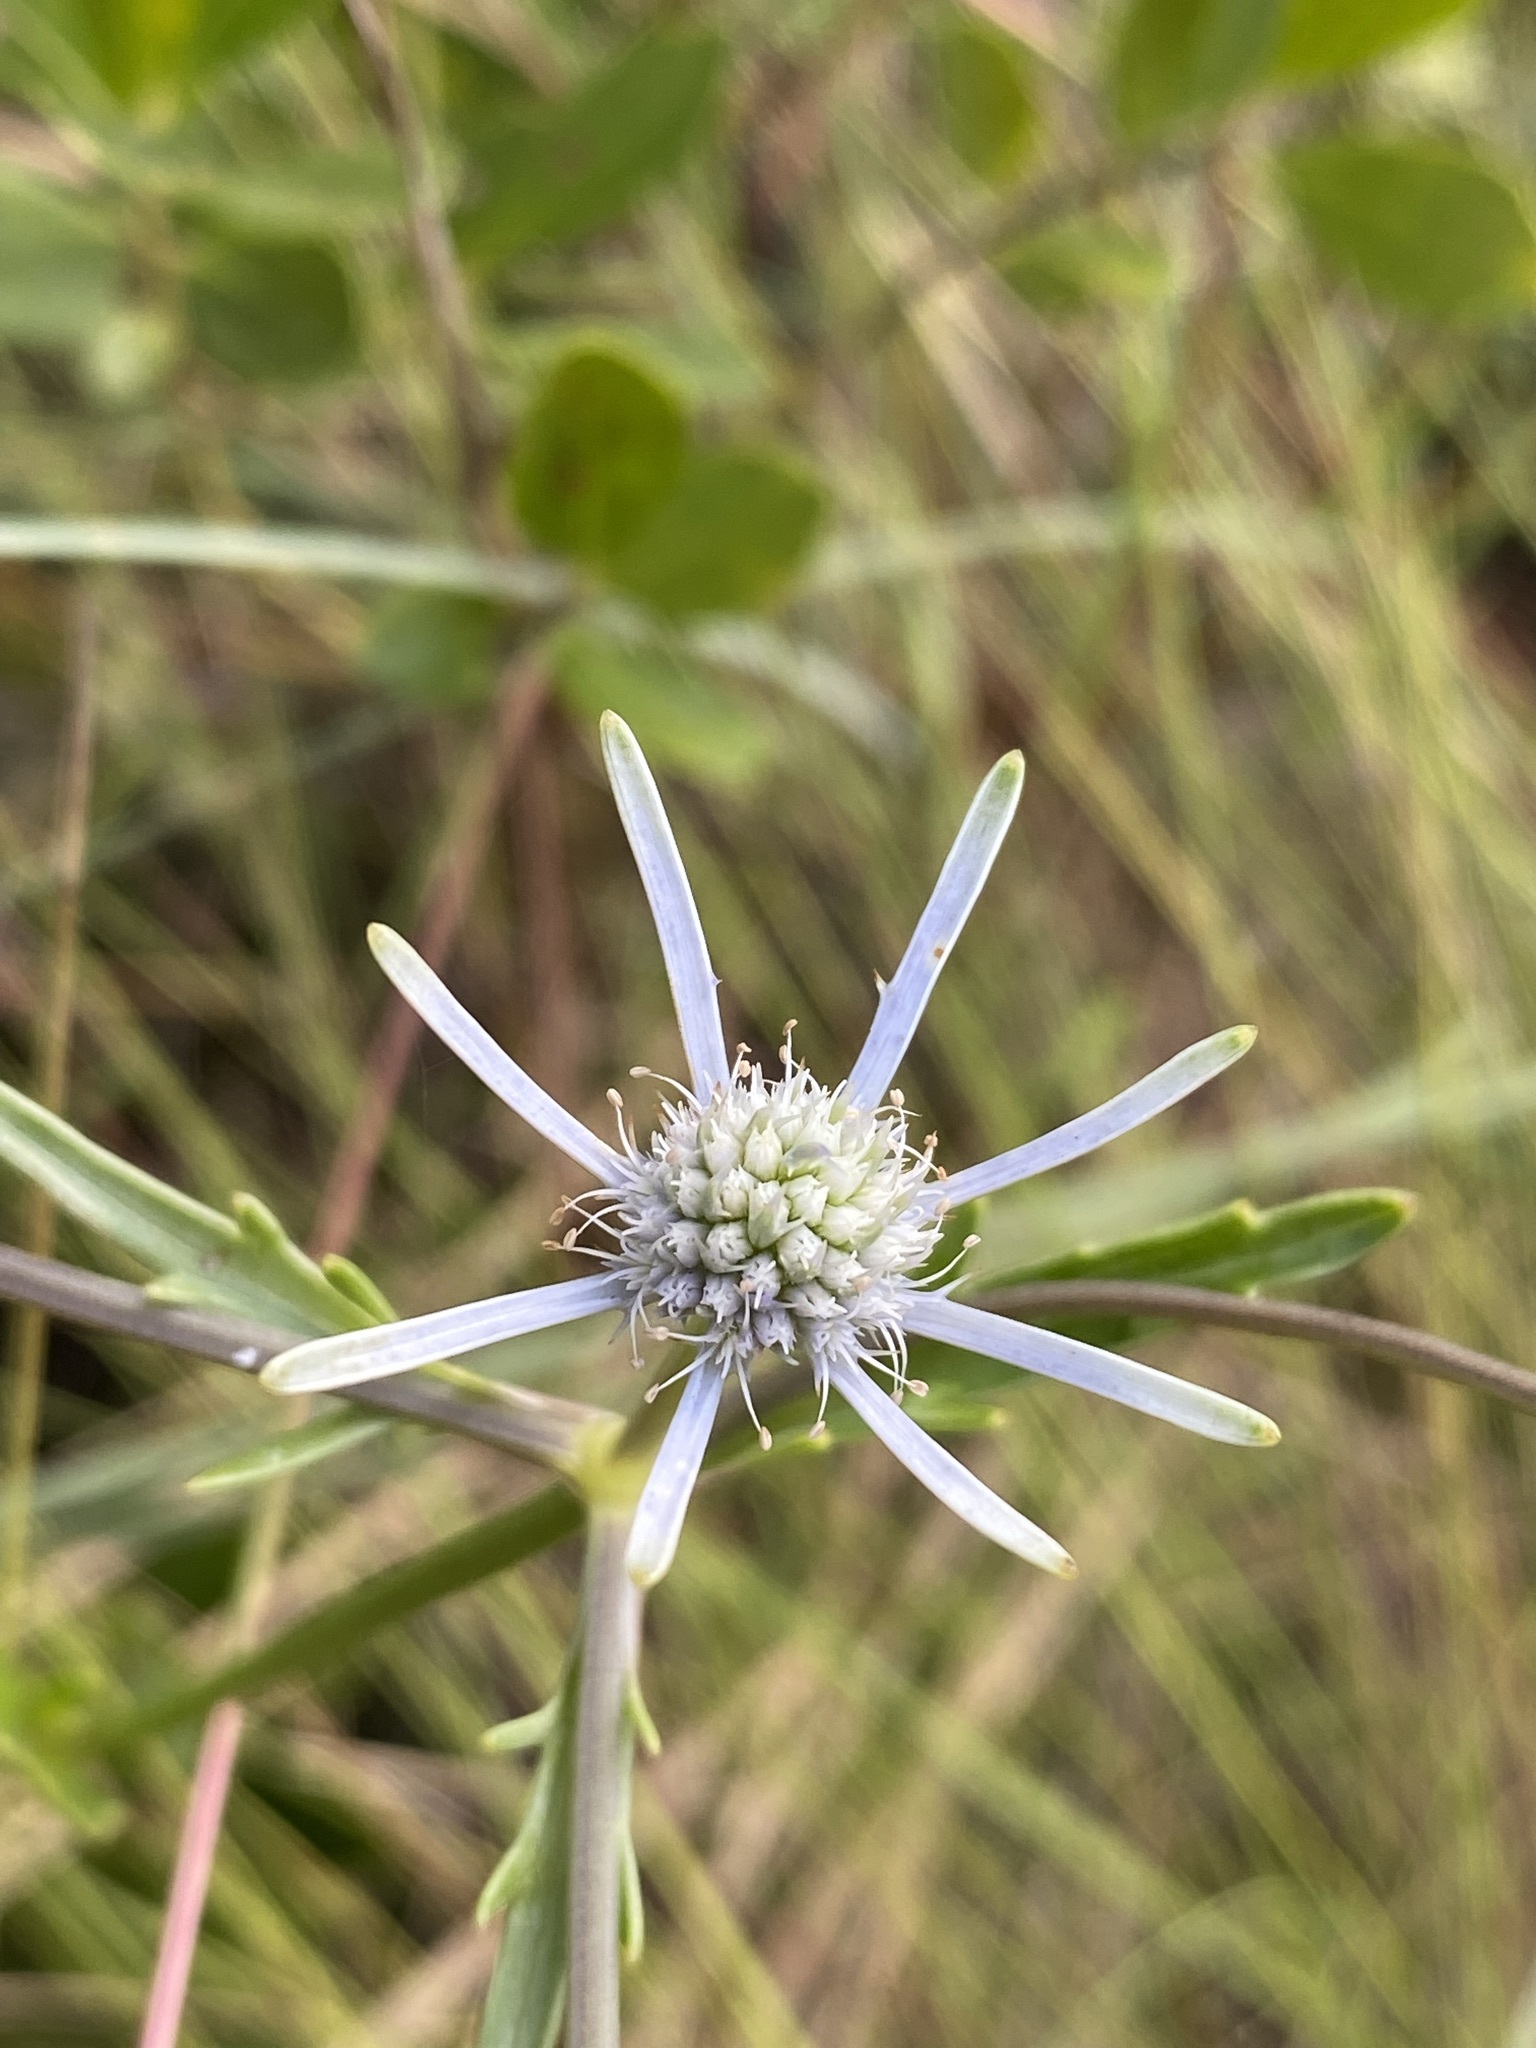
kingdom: Plantae
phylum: Tracheophyta
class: Magnoliopsida
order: Apiales
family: Apiaceae
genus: Eryngium
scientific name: Eryngium integrifolium
